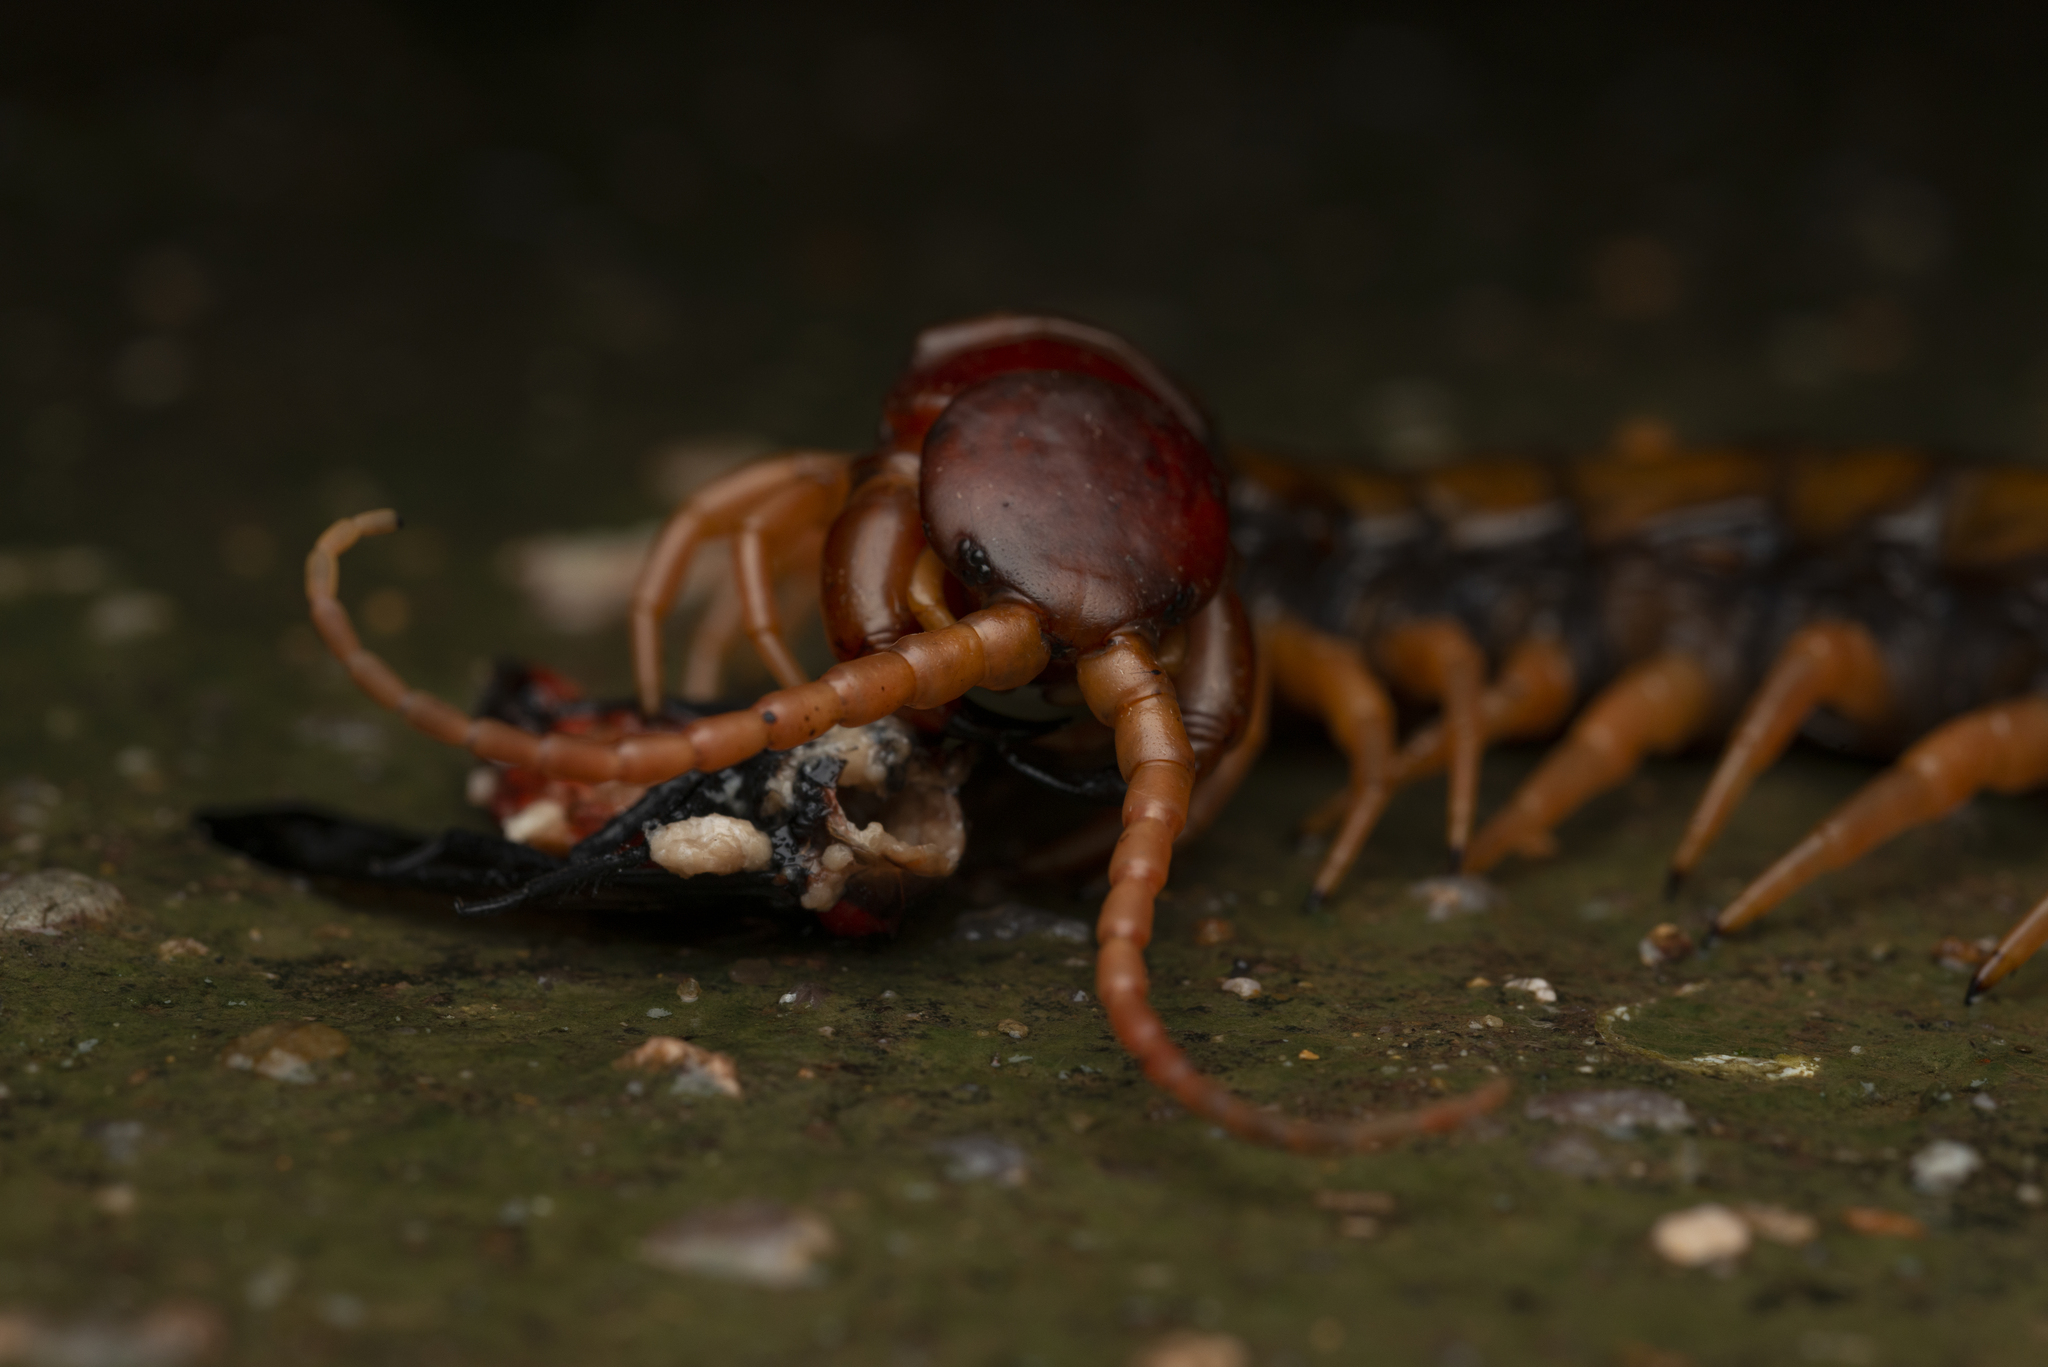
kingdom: Animalia
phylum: Arthropoda
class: Chilopoda
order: Scolopendromorpha
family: Scolopendridae
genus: Scolopendra
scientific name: Scolopendra multidens
